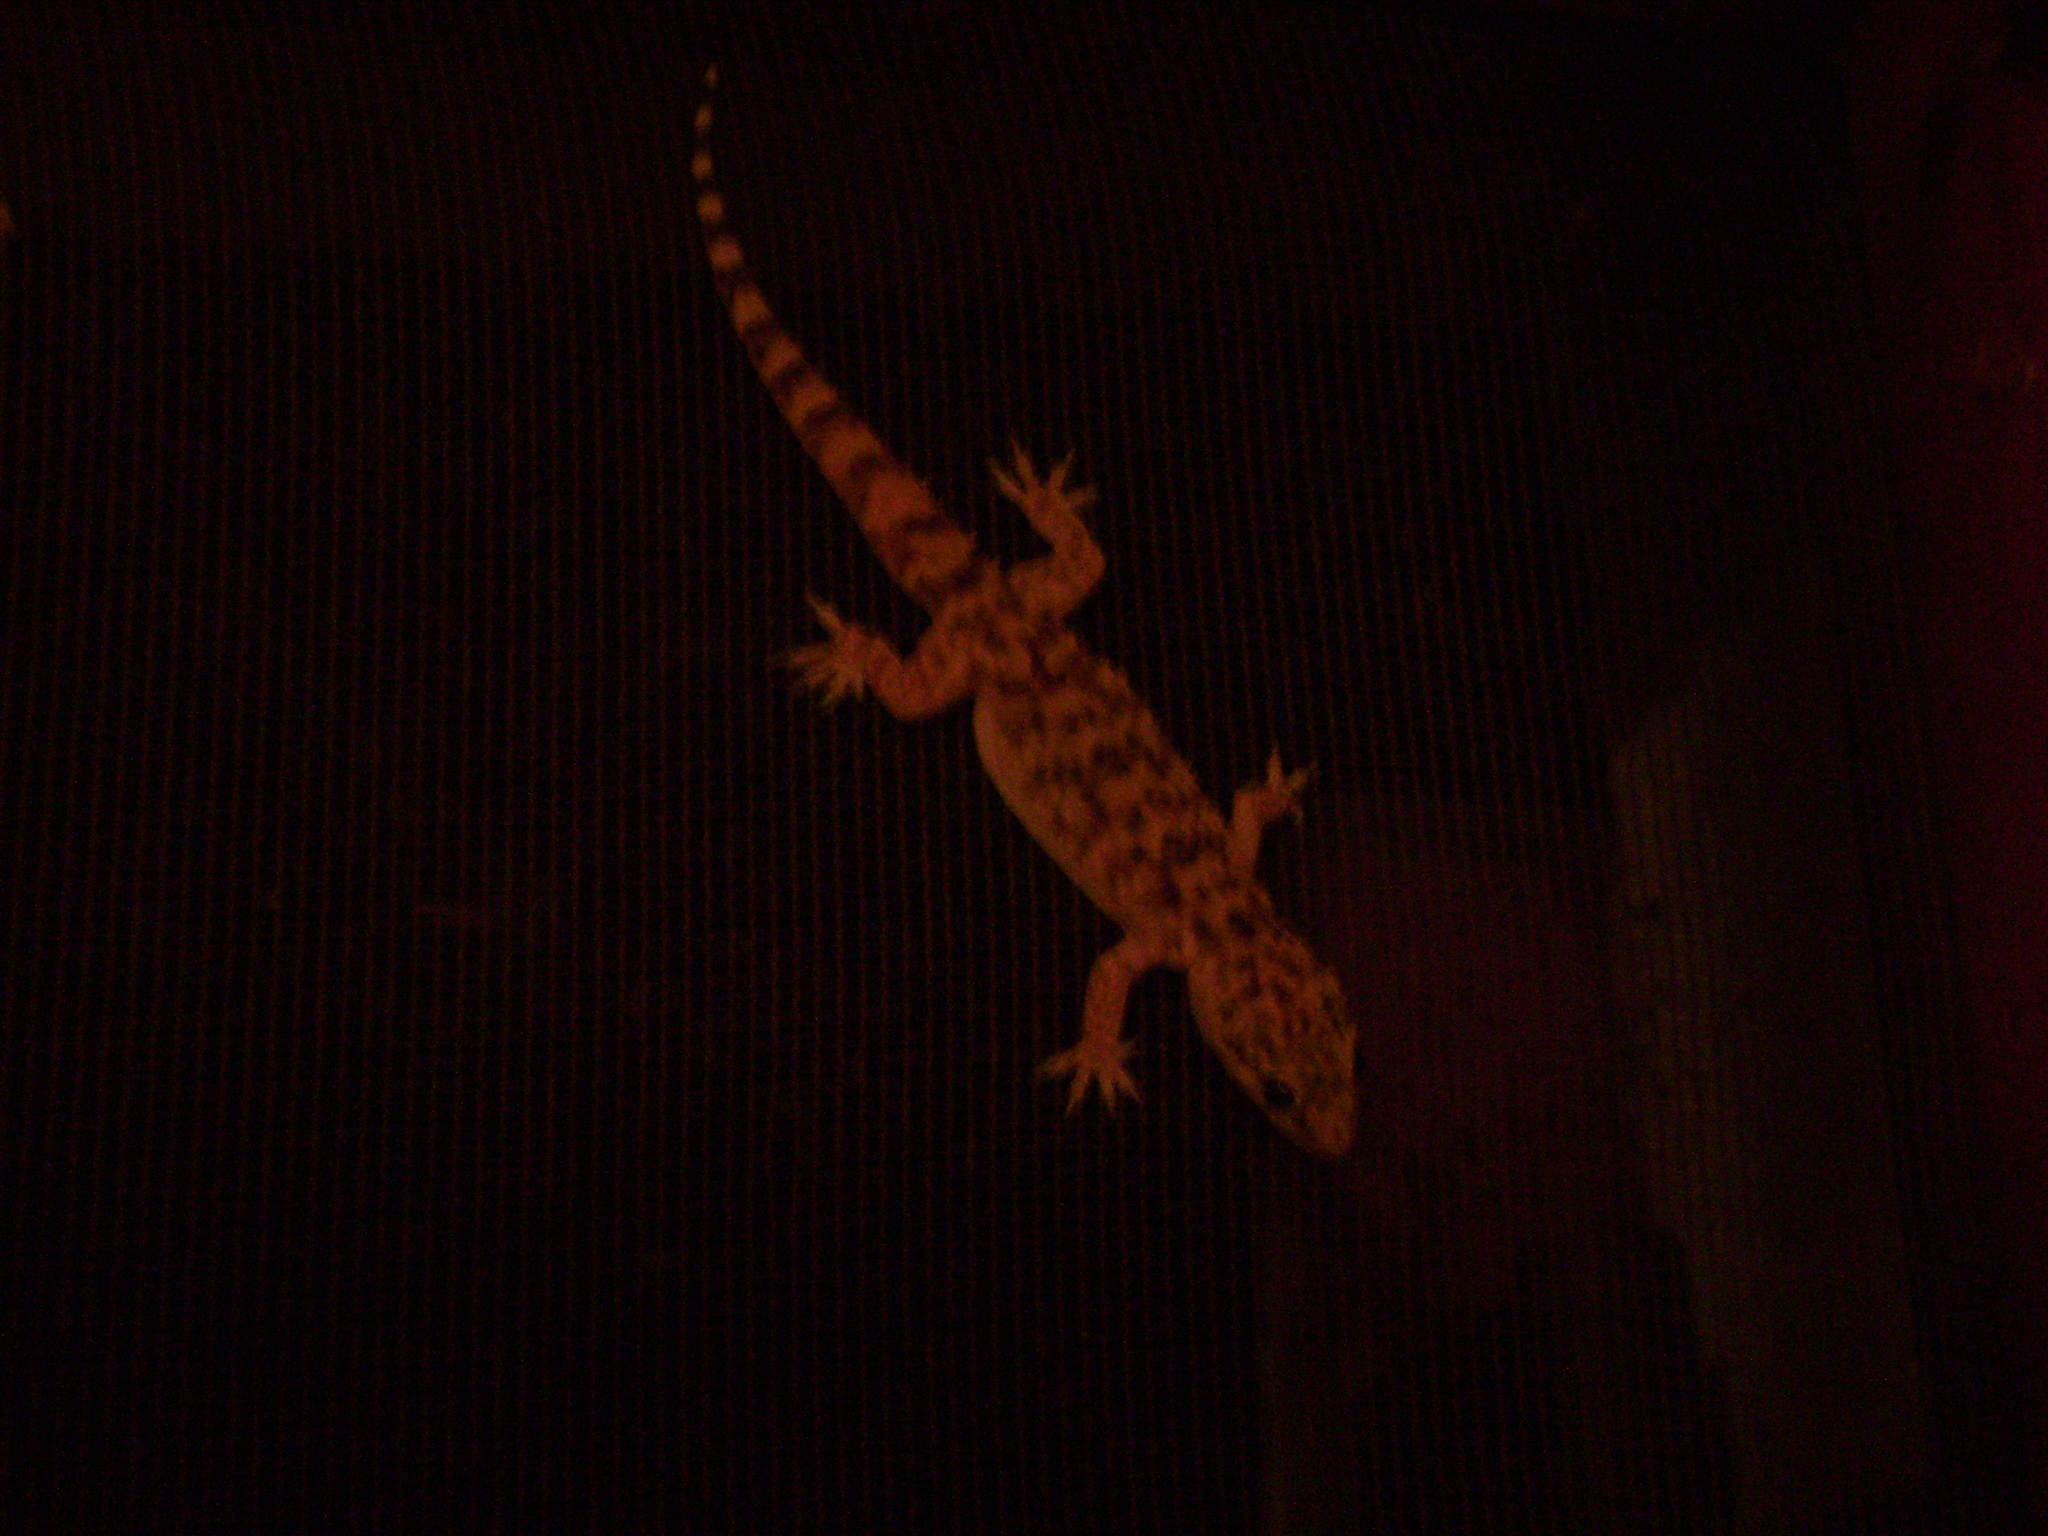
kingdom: Animalia
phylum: Chordata
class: Squamata
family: Gekkonidae
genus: Hemidactylus
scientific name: Hemidactylus turcicus
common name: Turkish gecko
